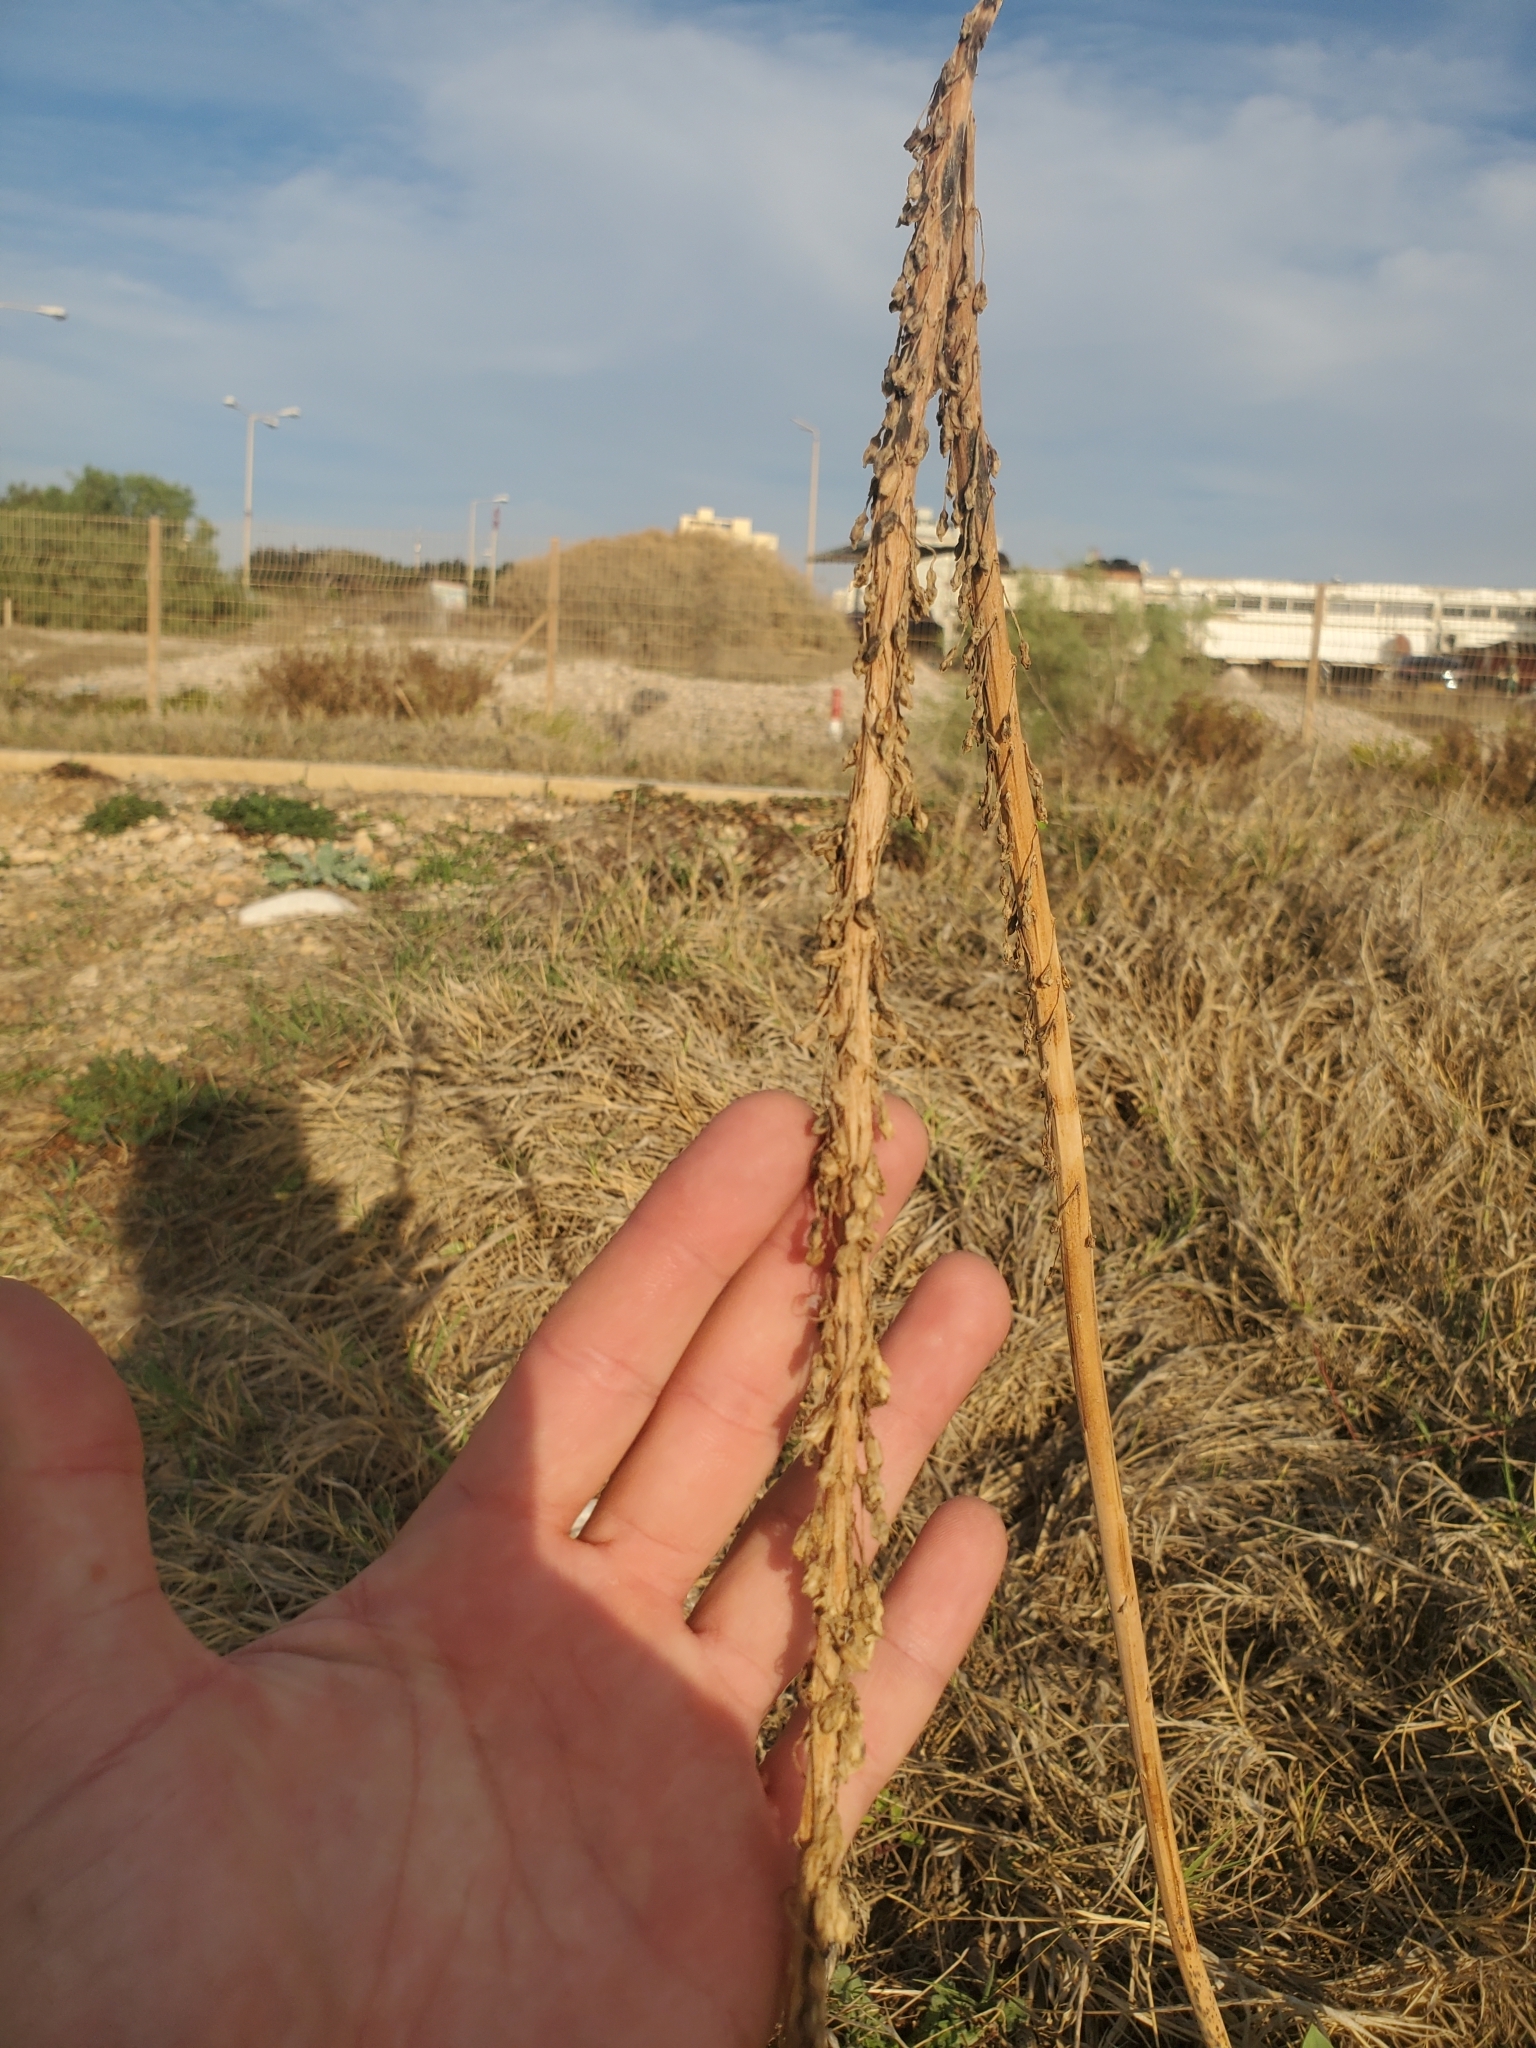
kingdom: Plantae
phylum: Tracheophyta
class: Liliopsida
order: Asparagales
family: Asparagaceae
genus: Drimia
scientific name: Drimia aphylla
